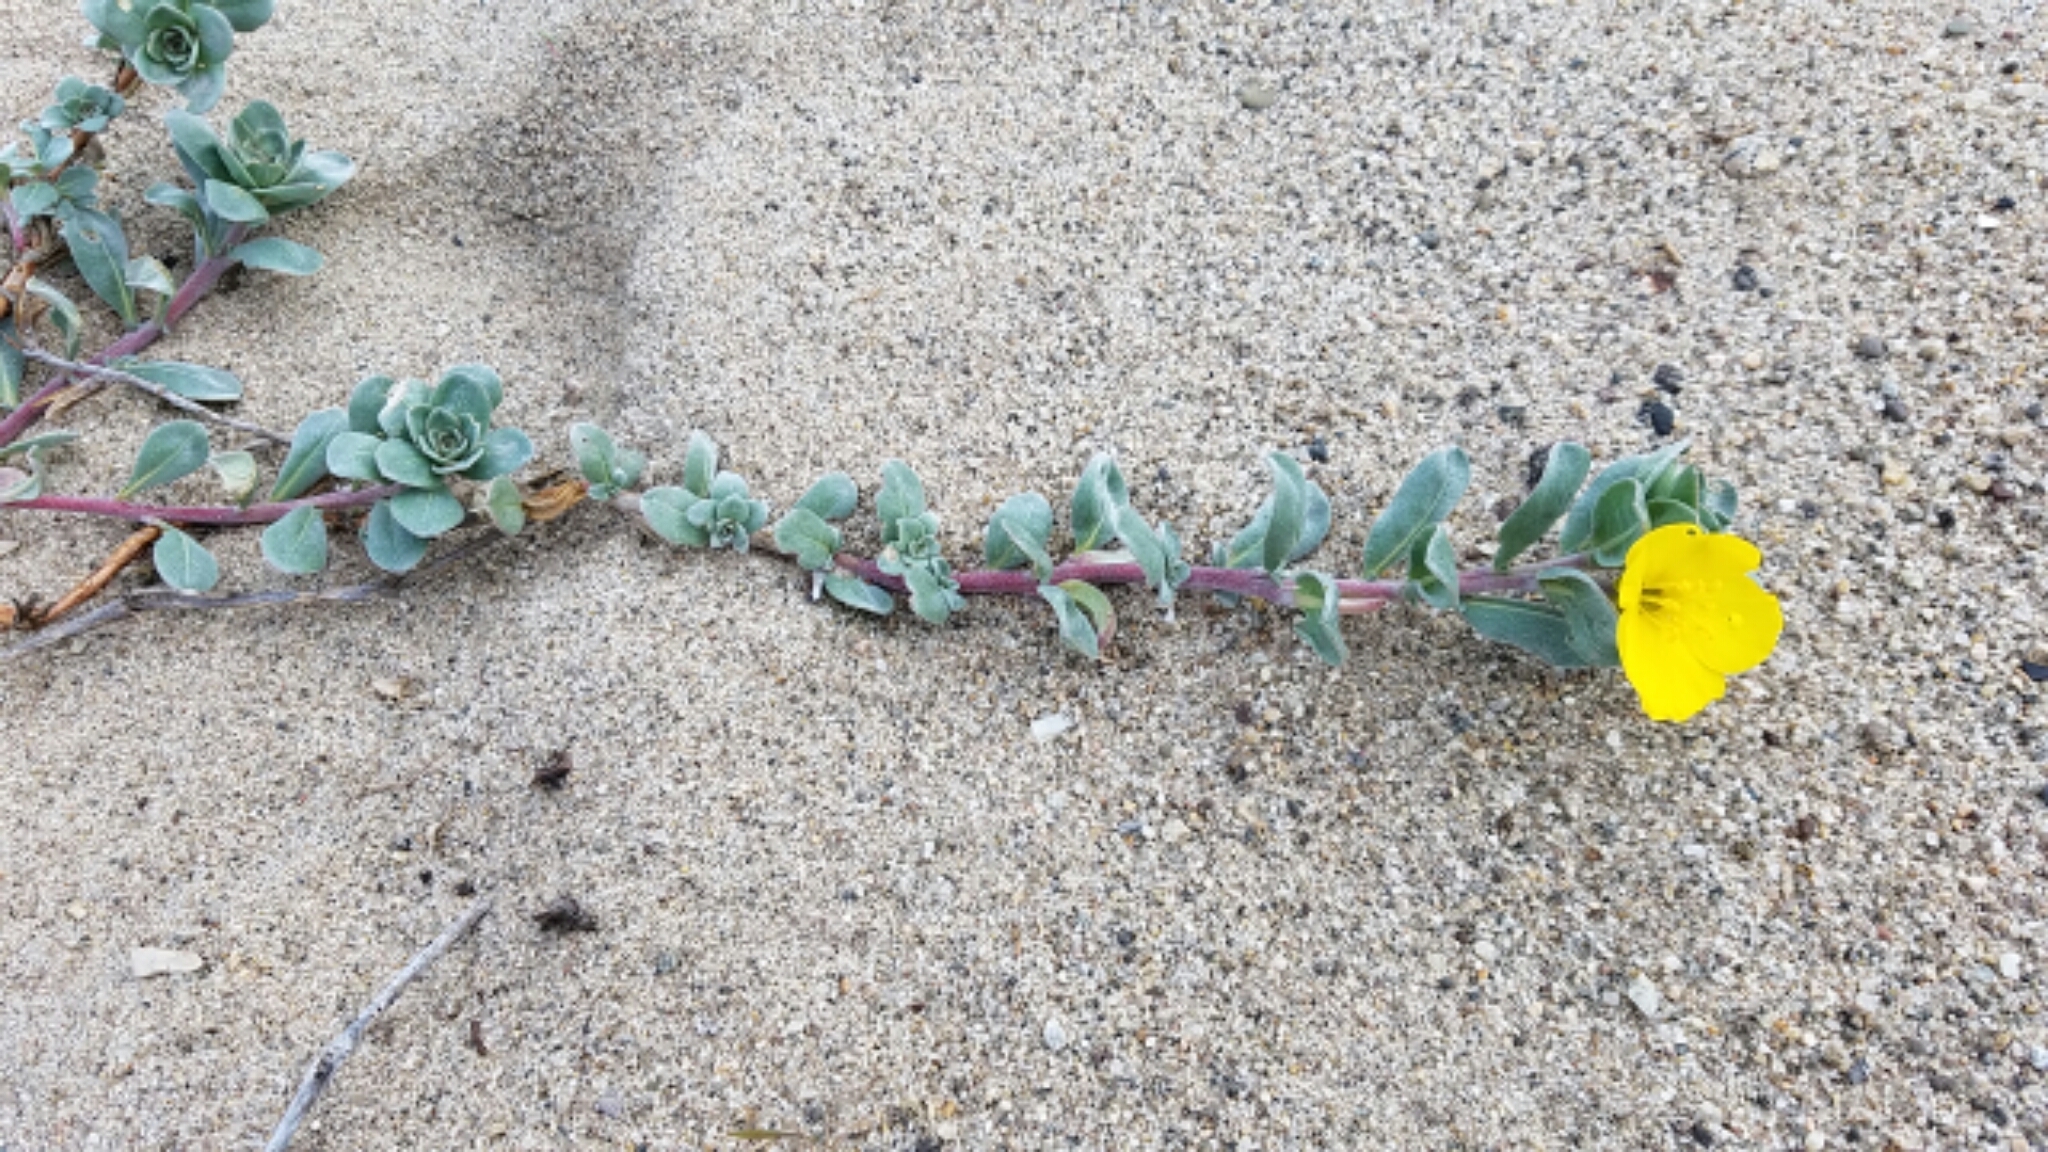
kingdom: Plantae
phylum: Tracheophyta
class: Magnoliopsida
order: Myrtales
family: Onagraceae
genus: Camissoniopsis
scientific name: Camissoniopsis cheiranthifolia
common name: Beach suncup
